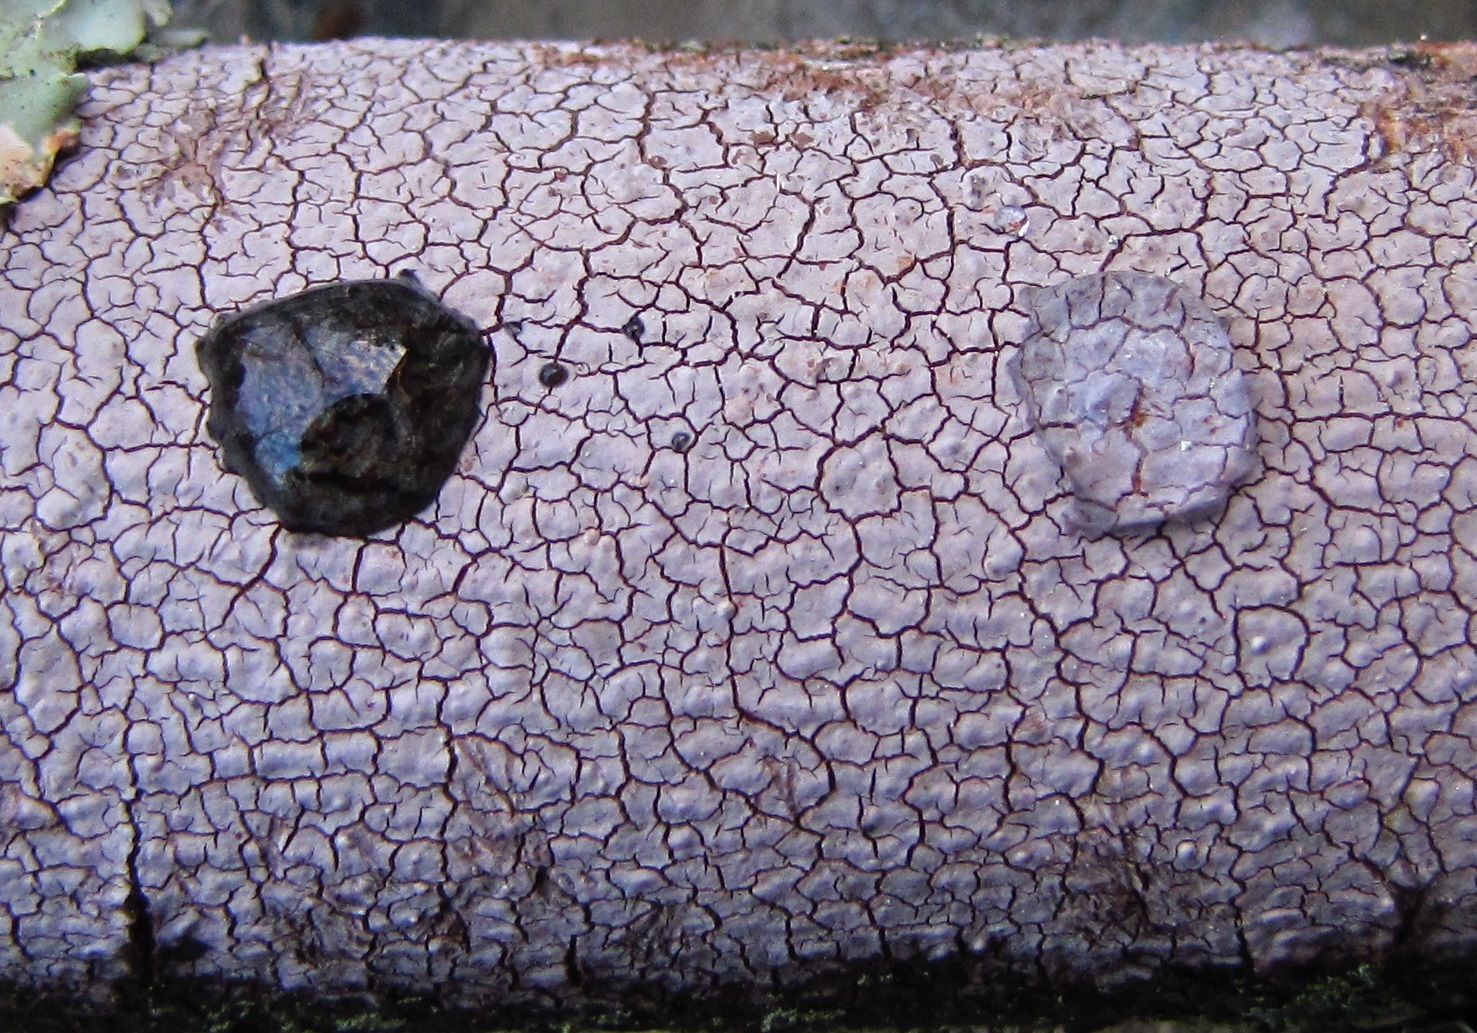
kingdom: Fungi
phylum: Basidiomycota
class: Agaricomycetes
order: Russulales
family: Stereaceae
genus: Xylobolus
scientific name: Xylobolus frustulatus
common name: Ceramic parchment
